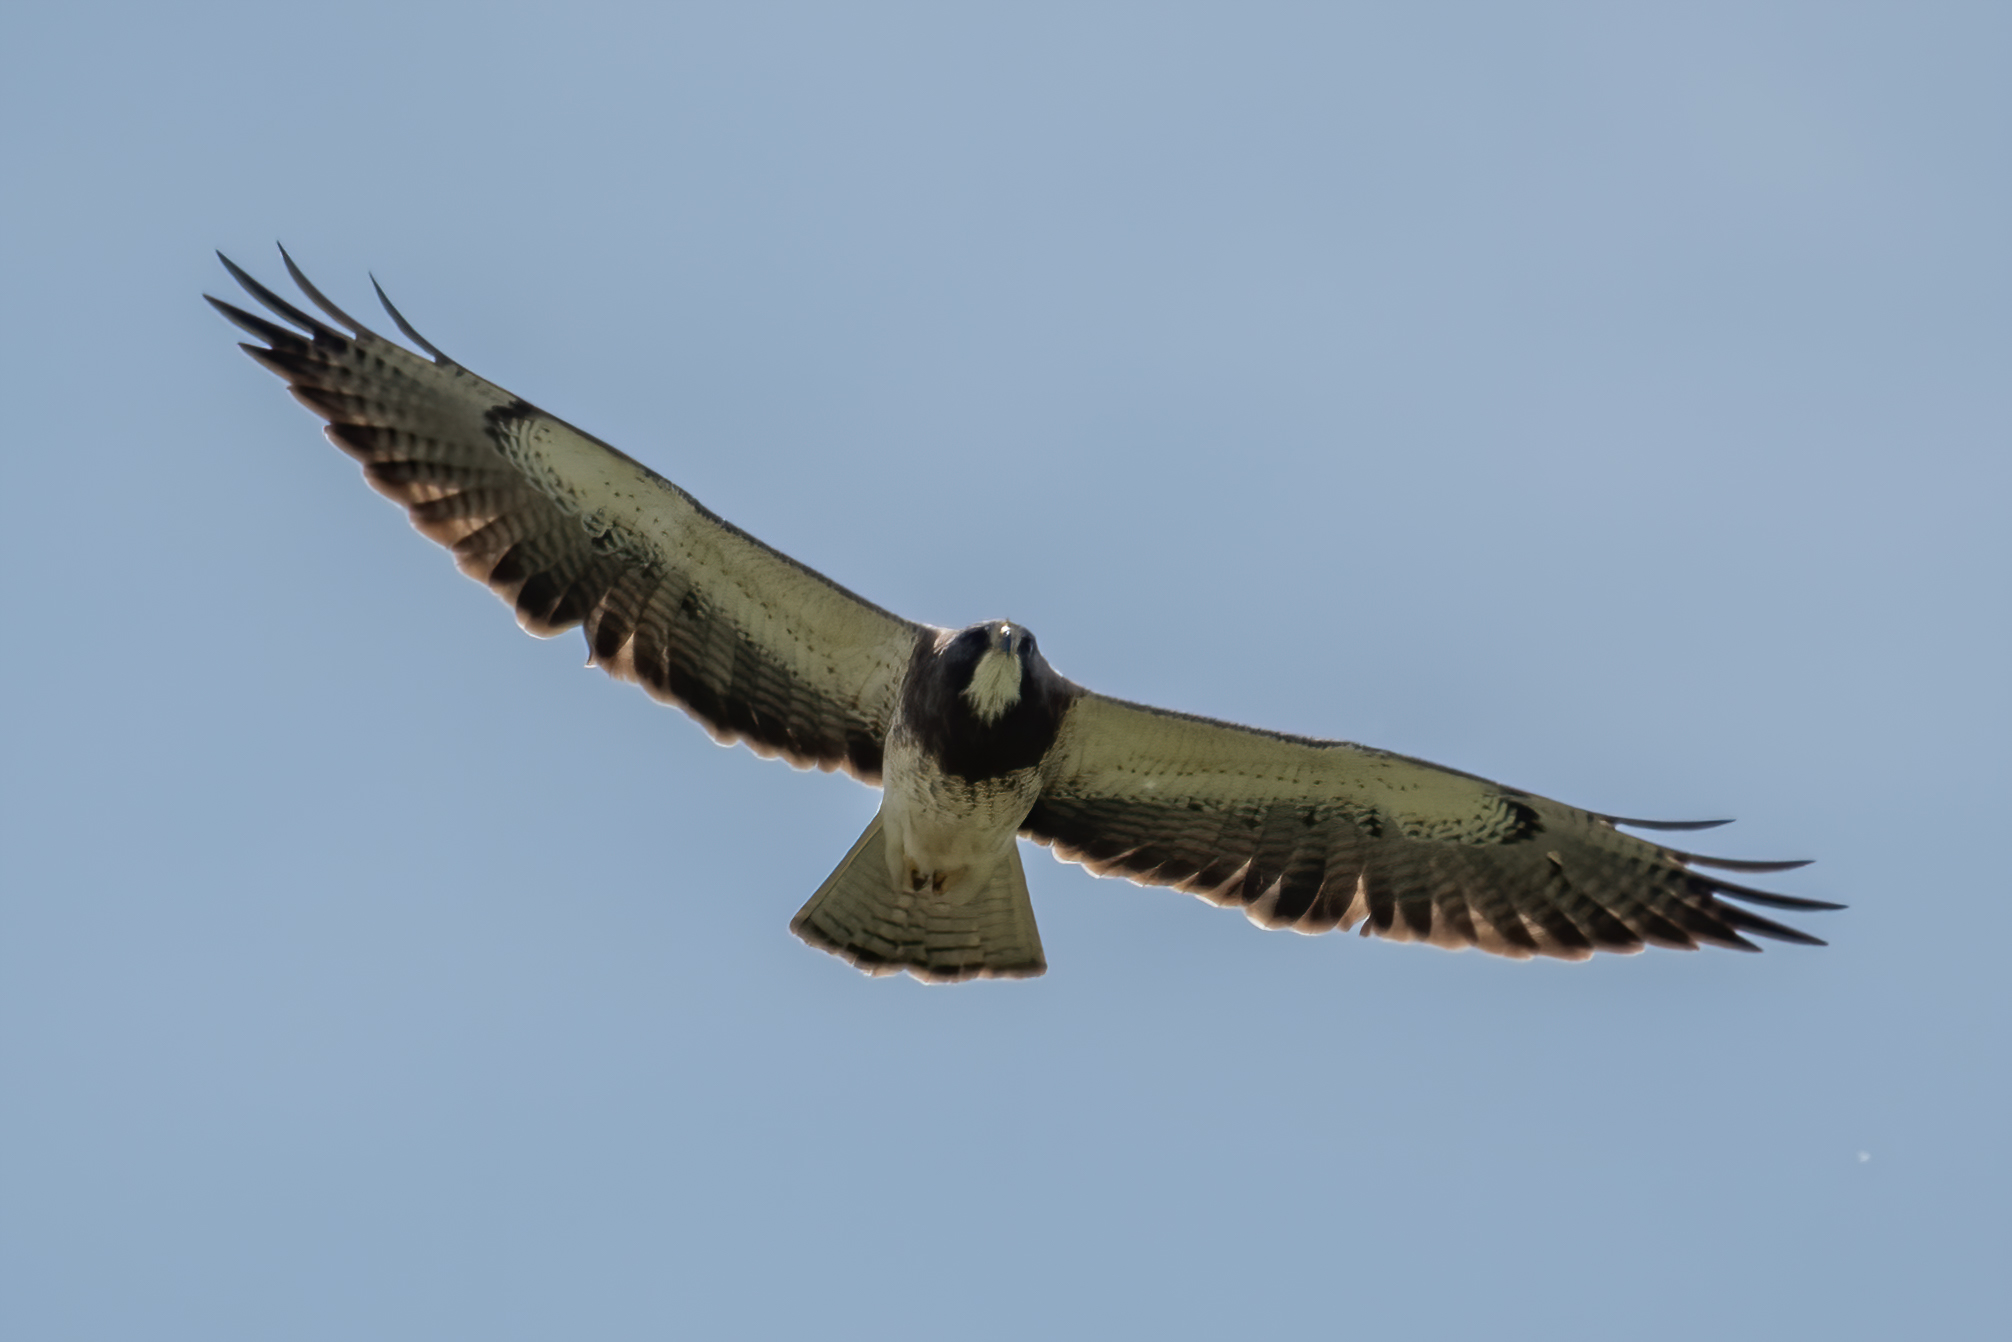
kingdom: Animalia
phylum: Chordata
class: Aves
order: Accipitriformes
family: Accipitridae
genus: Buteo
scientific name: Buteo swainsoni
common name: Swainson's hawk
